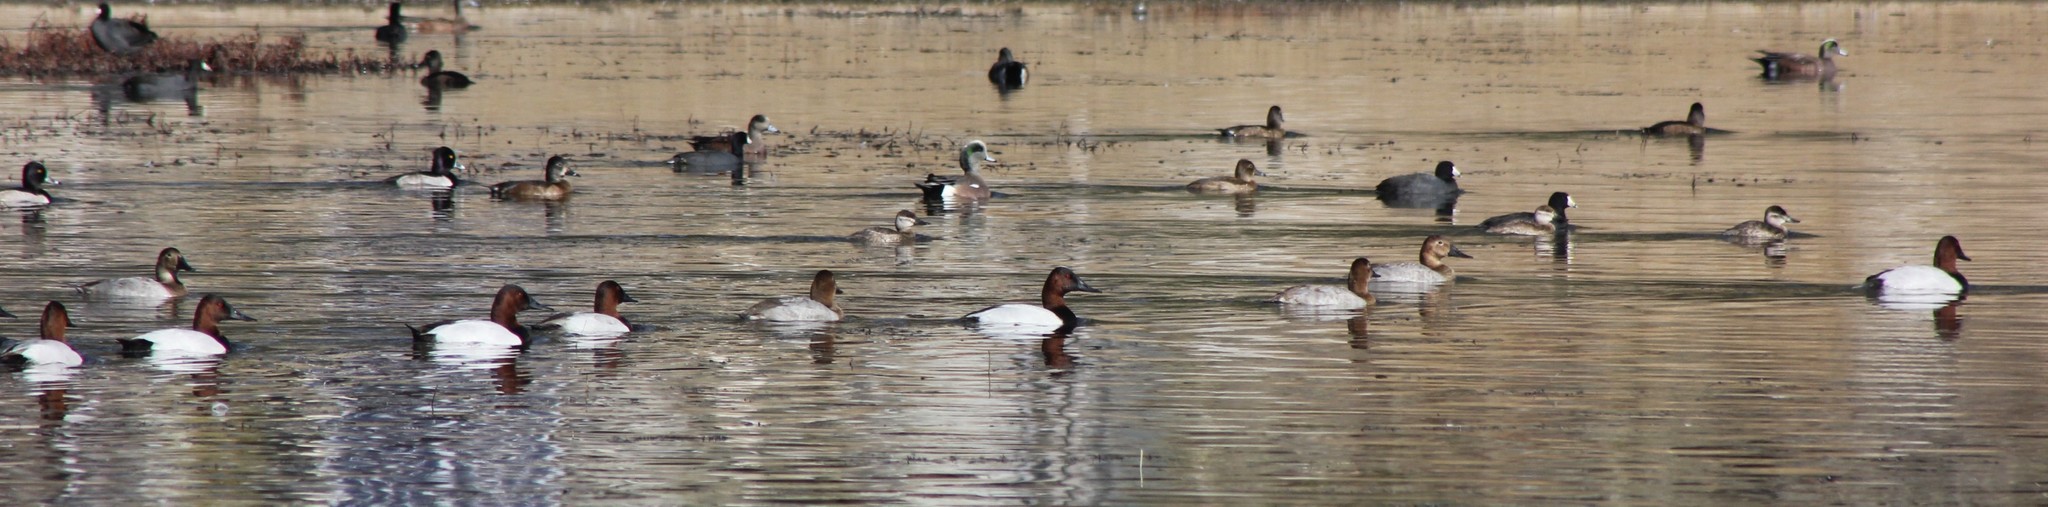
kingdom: Animalia
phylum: Chordata
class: Aves
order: Anseriformes
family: Anatidae
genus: Aythya
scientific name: Aythya valisineria
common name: Canvasback
